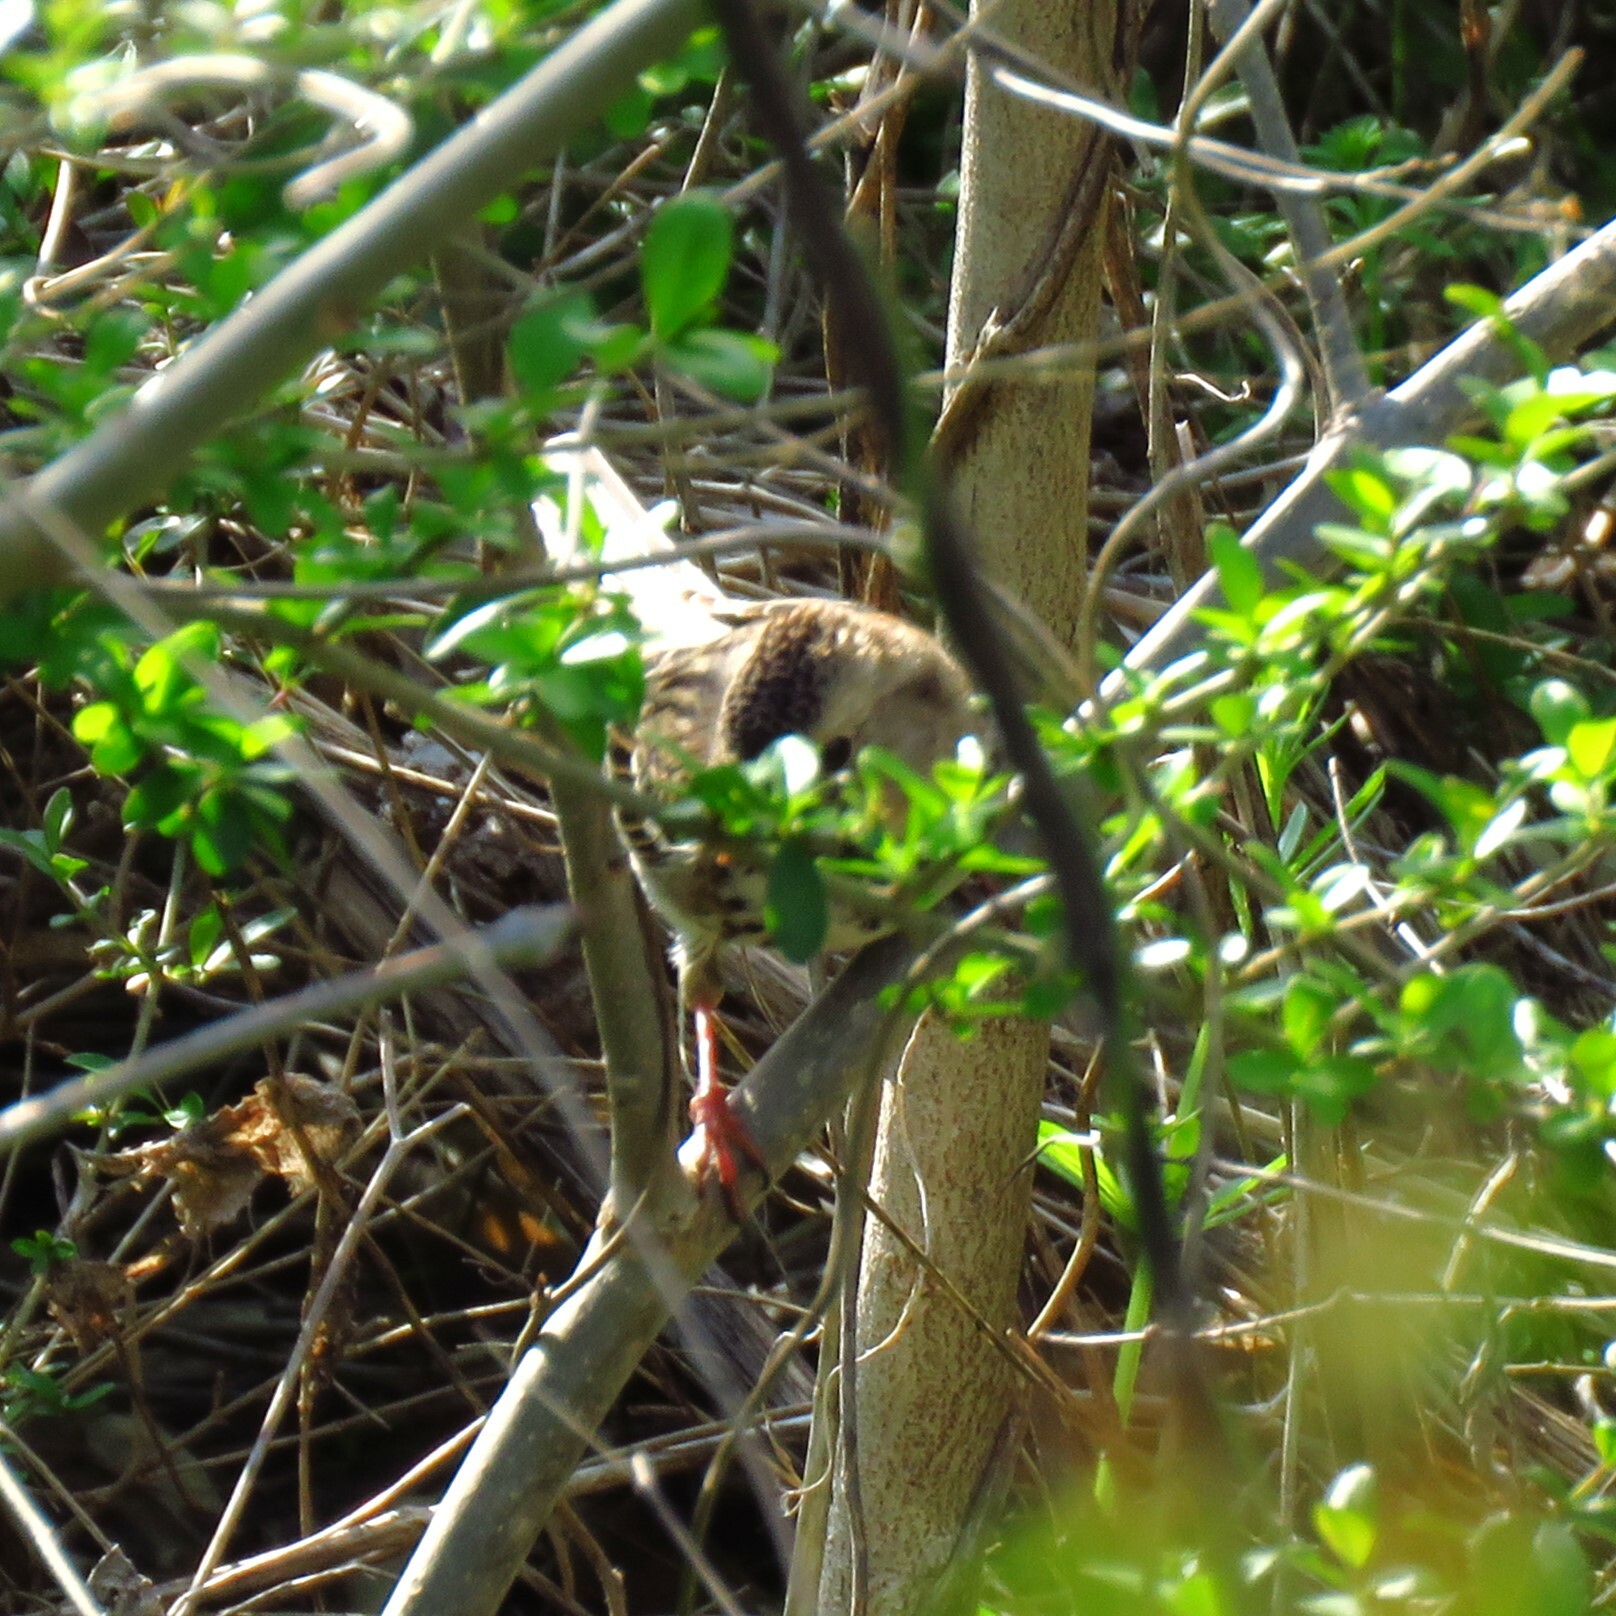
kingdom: Animalia
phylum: Chordata
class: Aves
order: Passeriformes
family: Passerellidae
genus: Zonotrichia
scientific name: Zonotrichia querula
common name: Harris's sparrow
